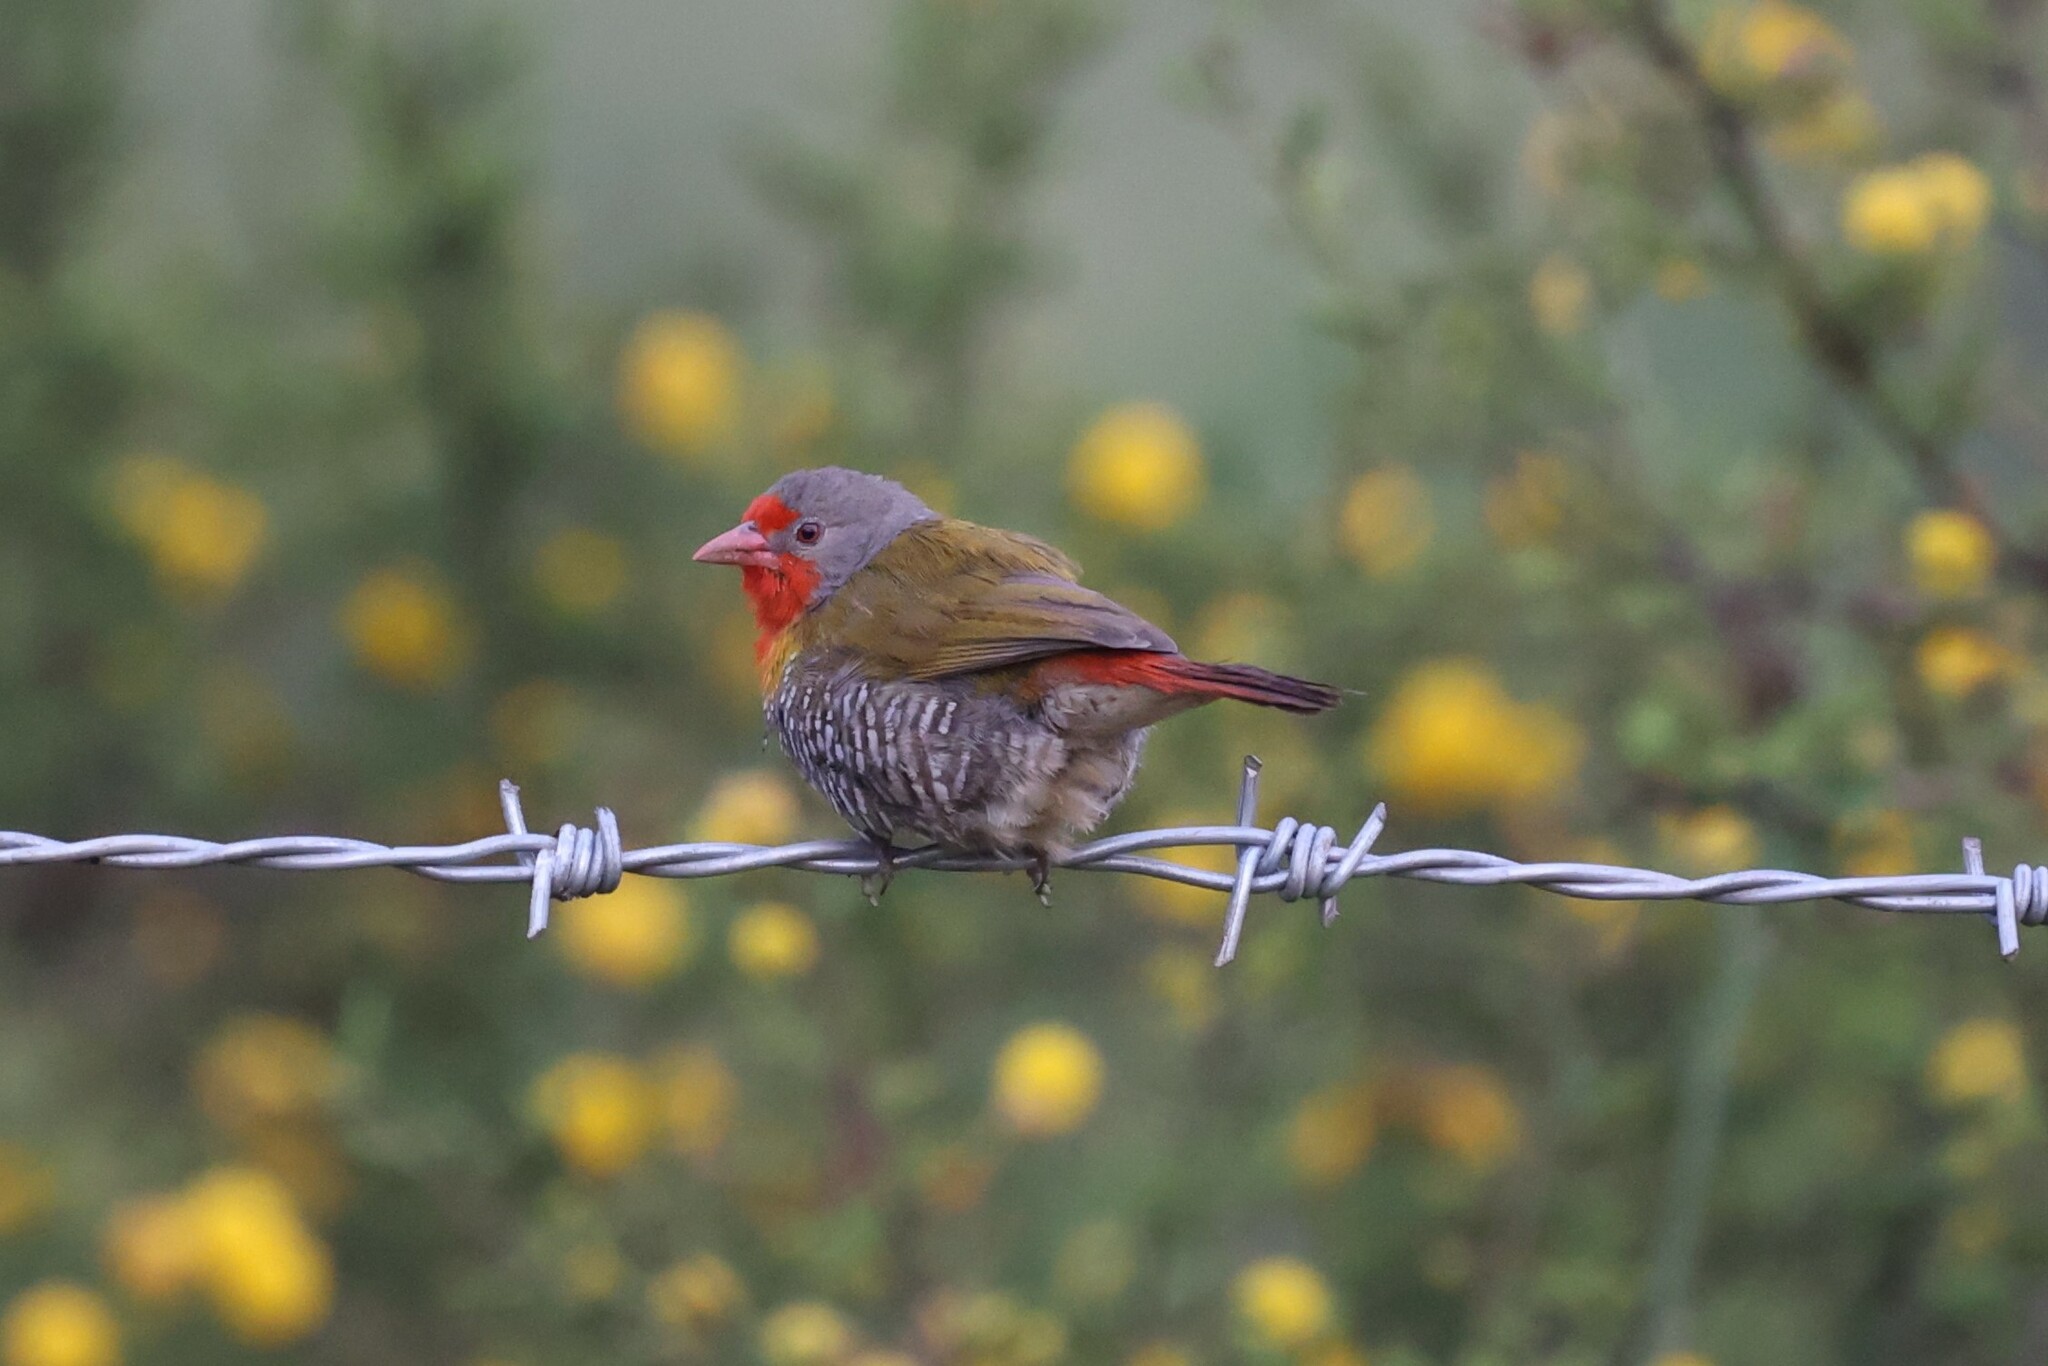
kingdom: Animalia
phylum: Chordata
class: Aves
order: Passeriformes
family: Estrildidae
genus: Pytilia
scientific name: Pytilia melba
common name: Green-winged pytilia
